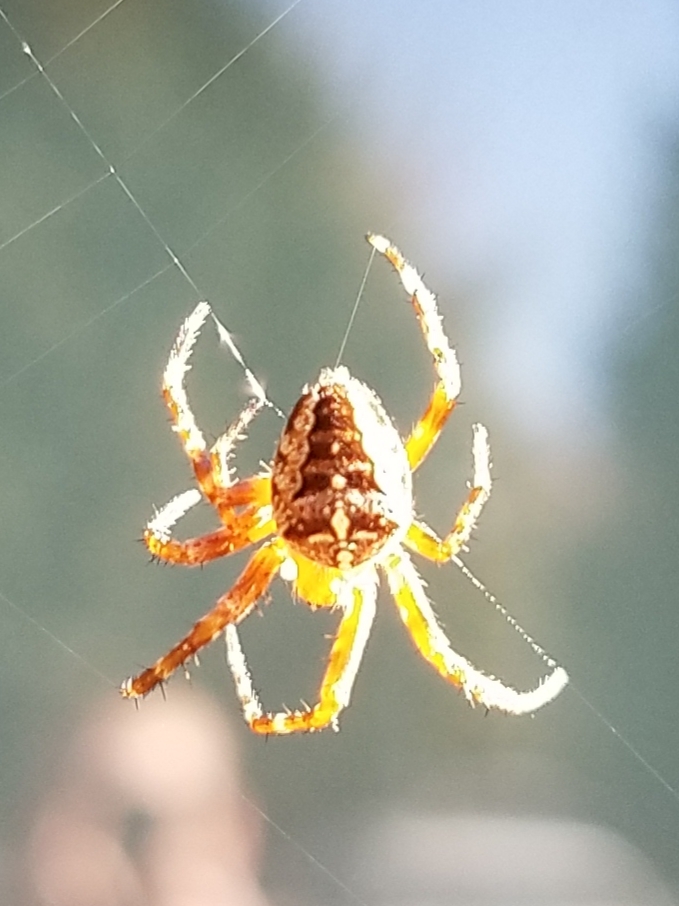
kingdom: Animalia
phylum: Arthropoda
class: Arachnida
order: Araneae
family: Araneidae
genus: Araneus
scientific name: Araneus diadematus
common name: Cross orbweaver
